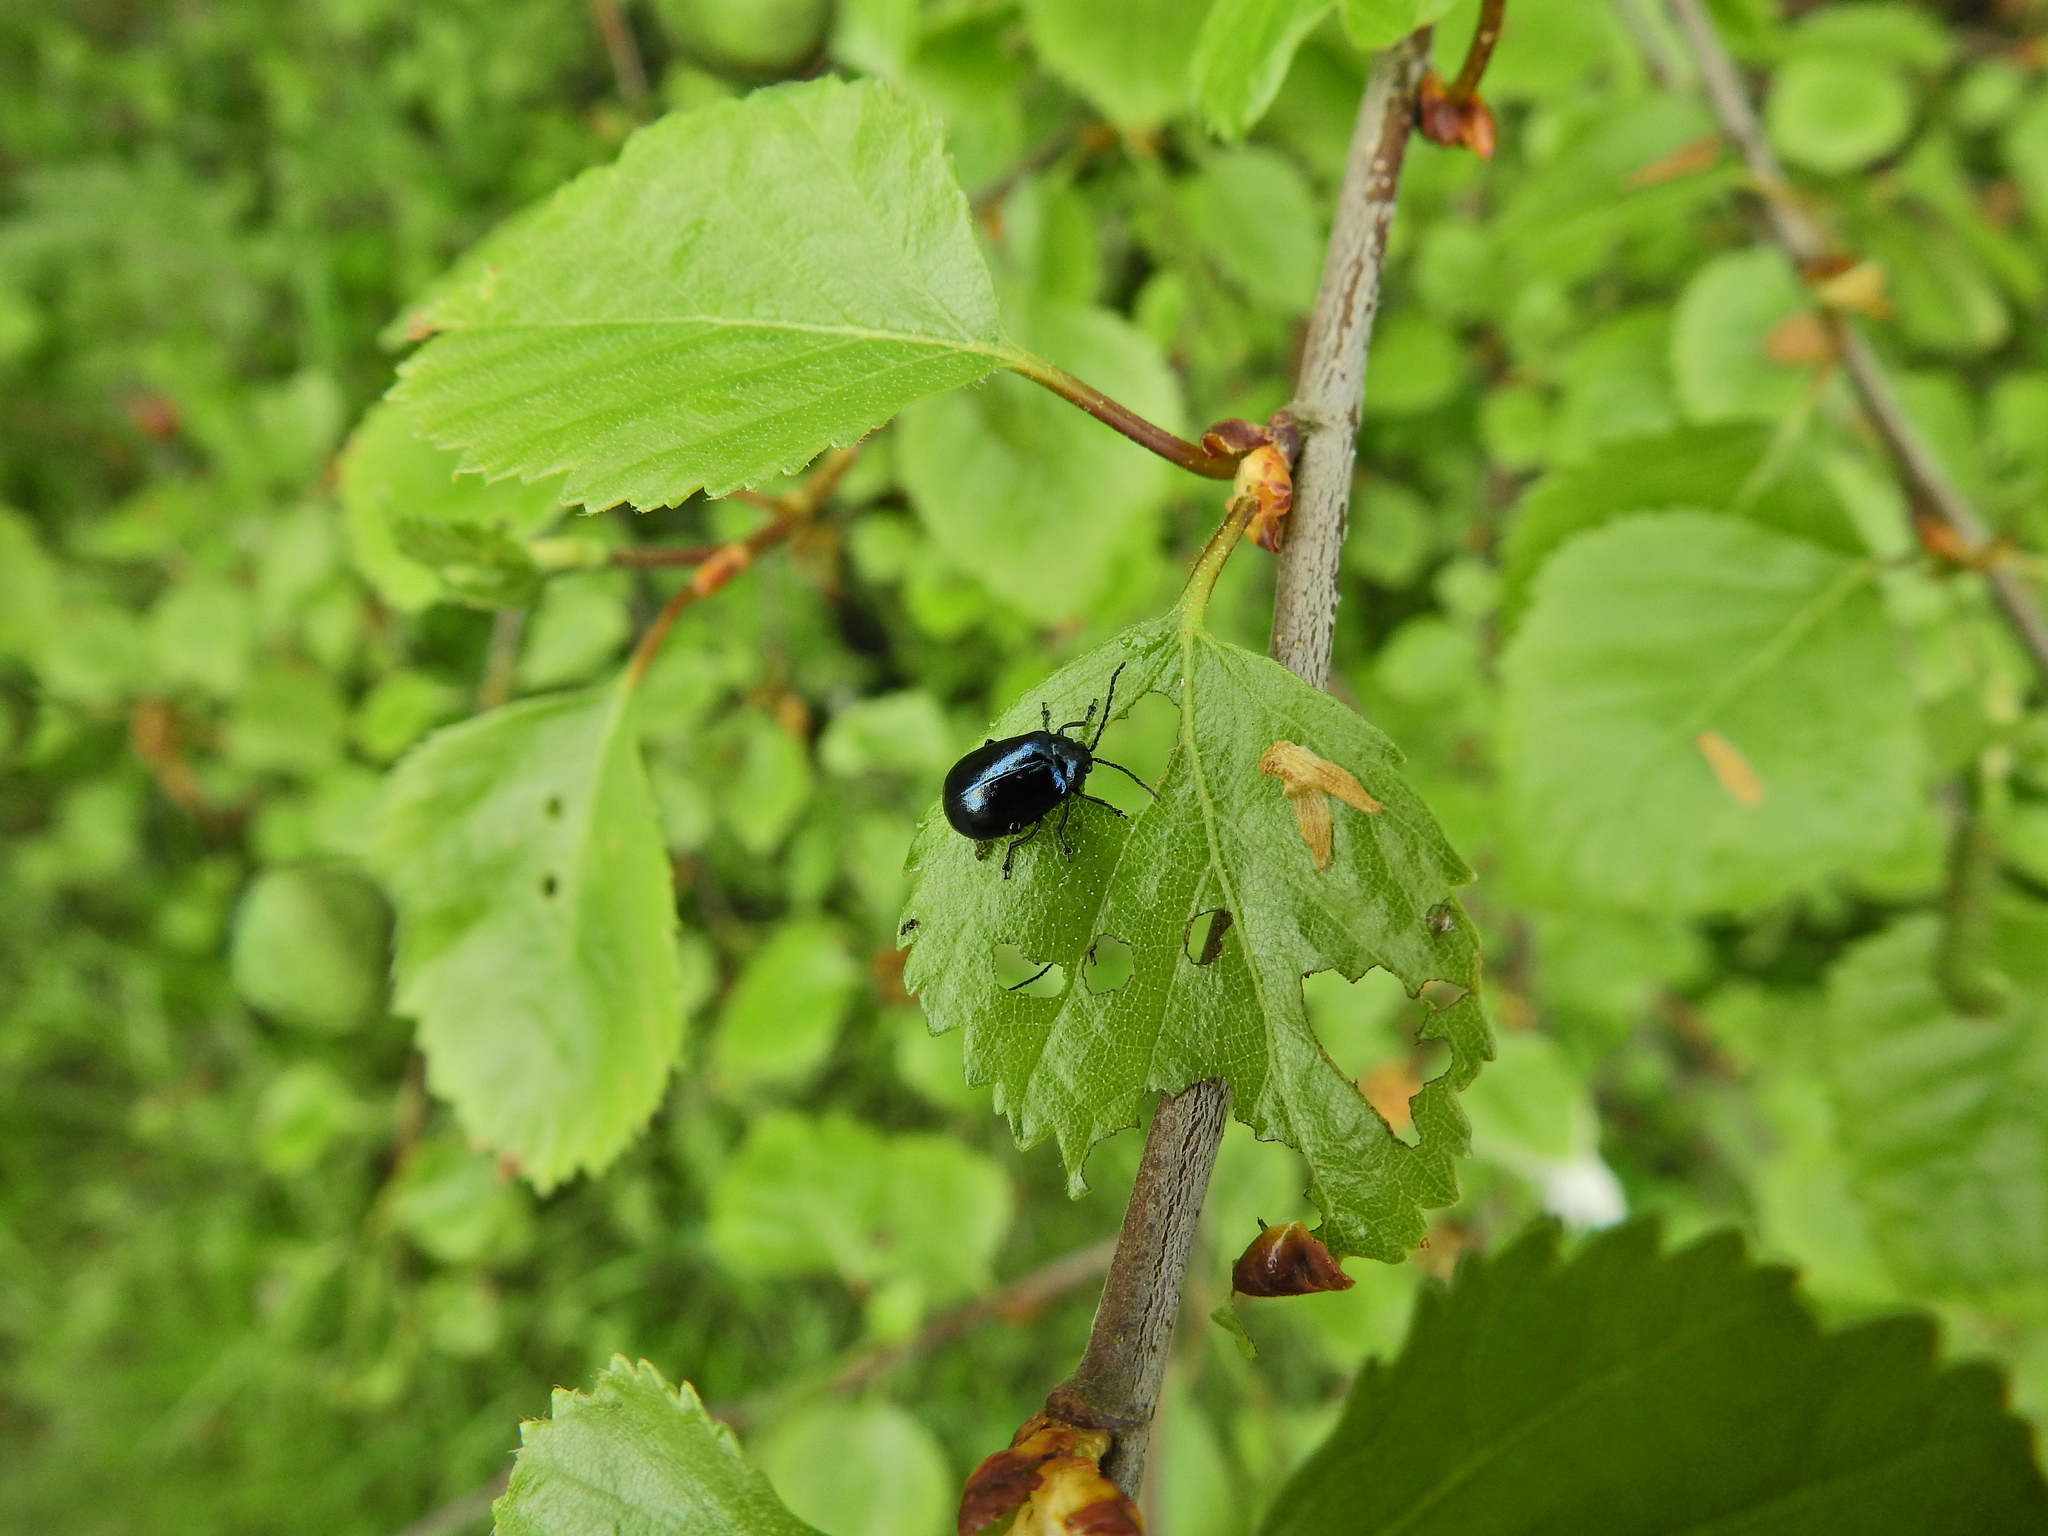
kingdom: Animalia
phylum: Arthropoda
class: Insecta
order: Coleoptera
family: Chrysomelidae
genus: Agelastica
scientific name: Agelastica alni
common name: Alder leaf beetle
